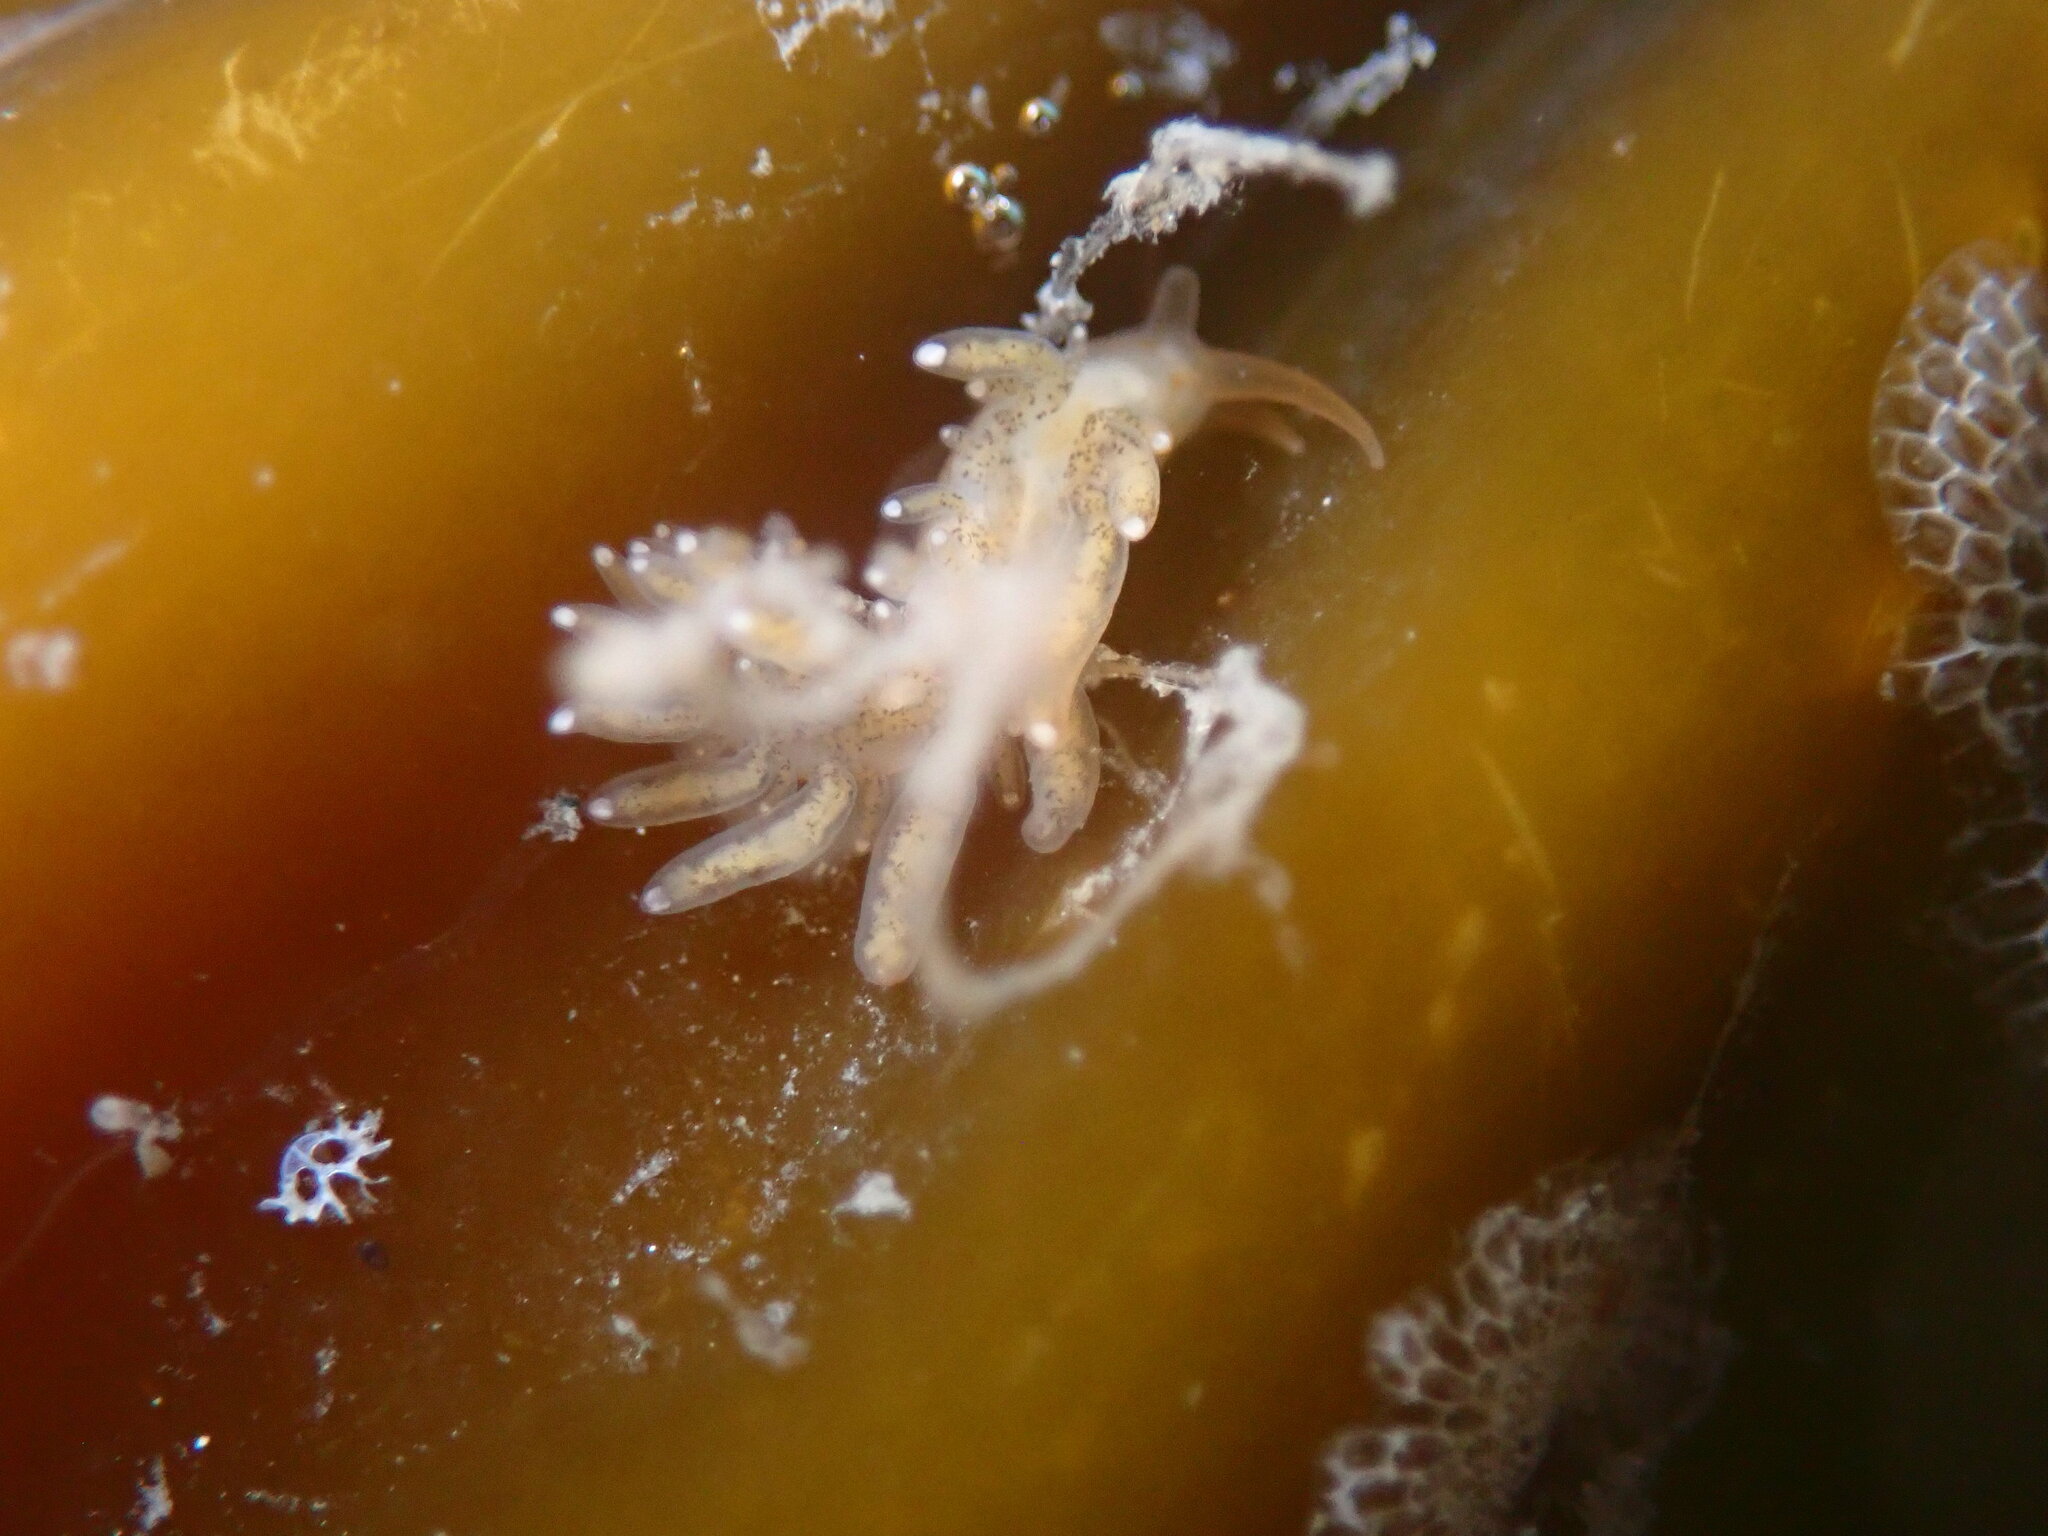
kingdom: Animalia
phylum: Mollusca
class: Gastropoda
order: Nudibranchia
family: Cuthonidae
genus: Cuthona
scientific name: Cuthona phoenix
